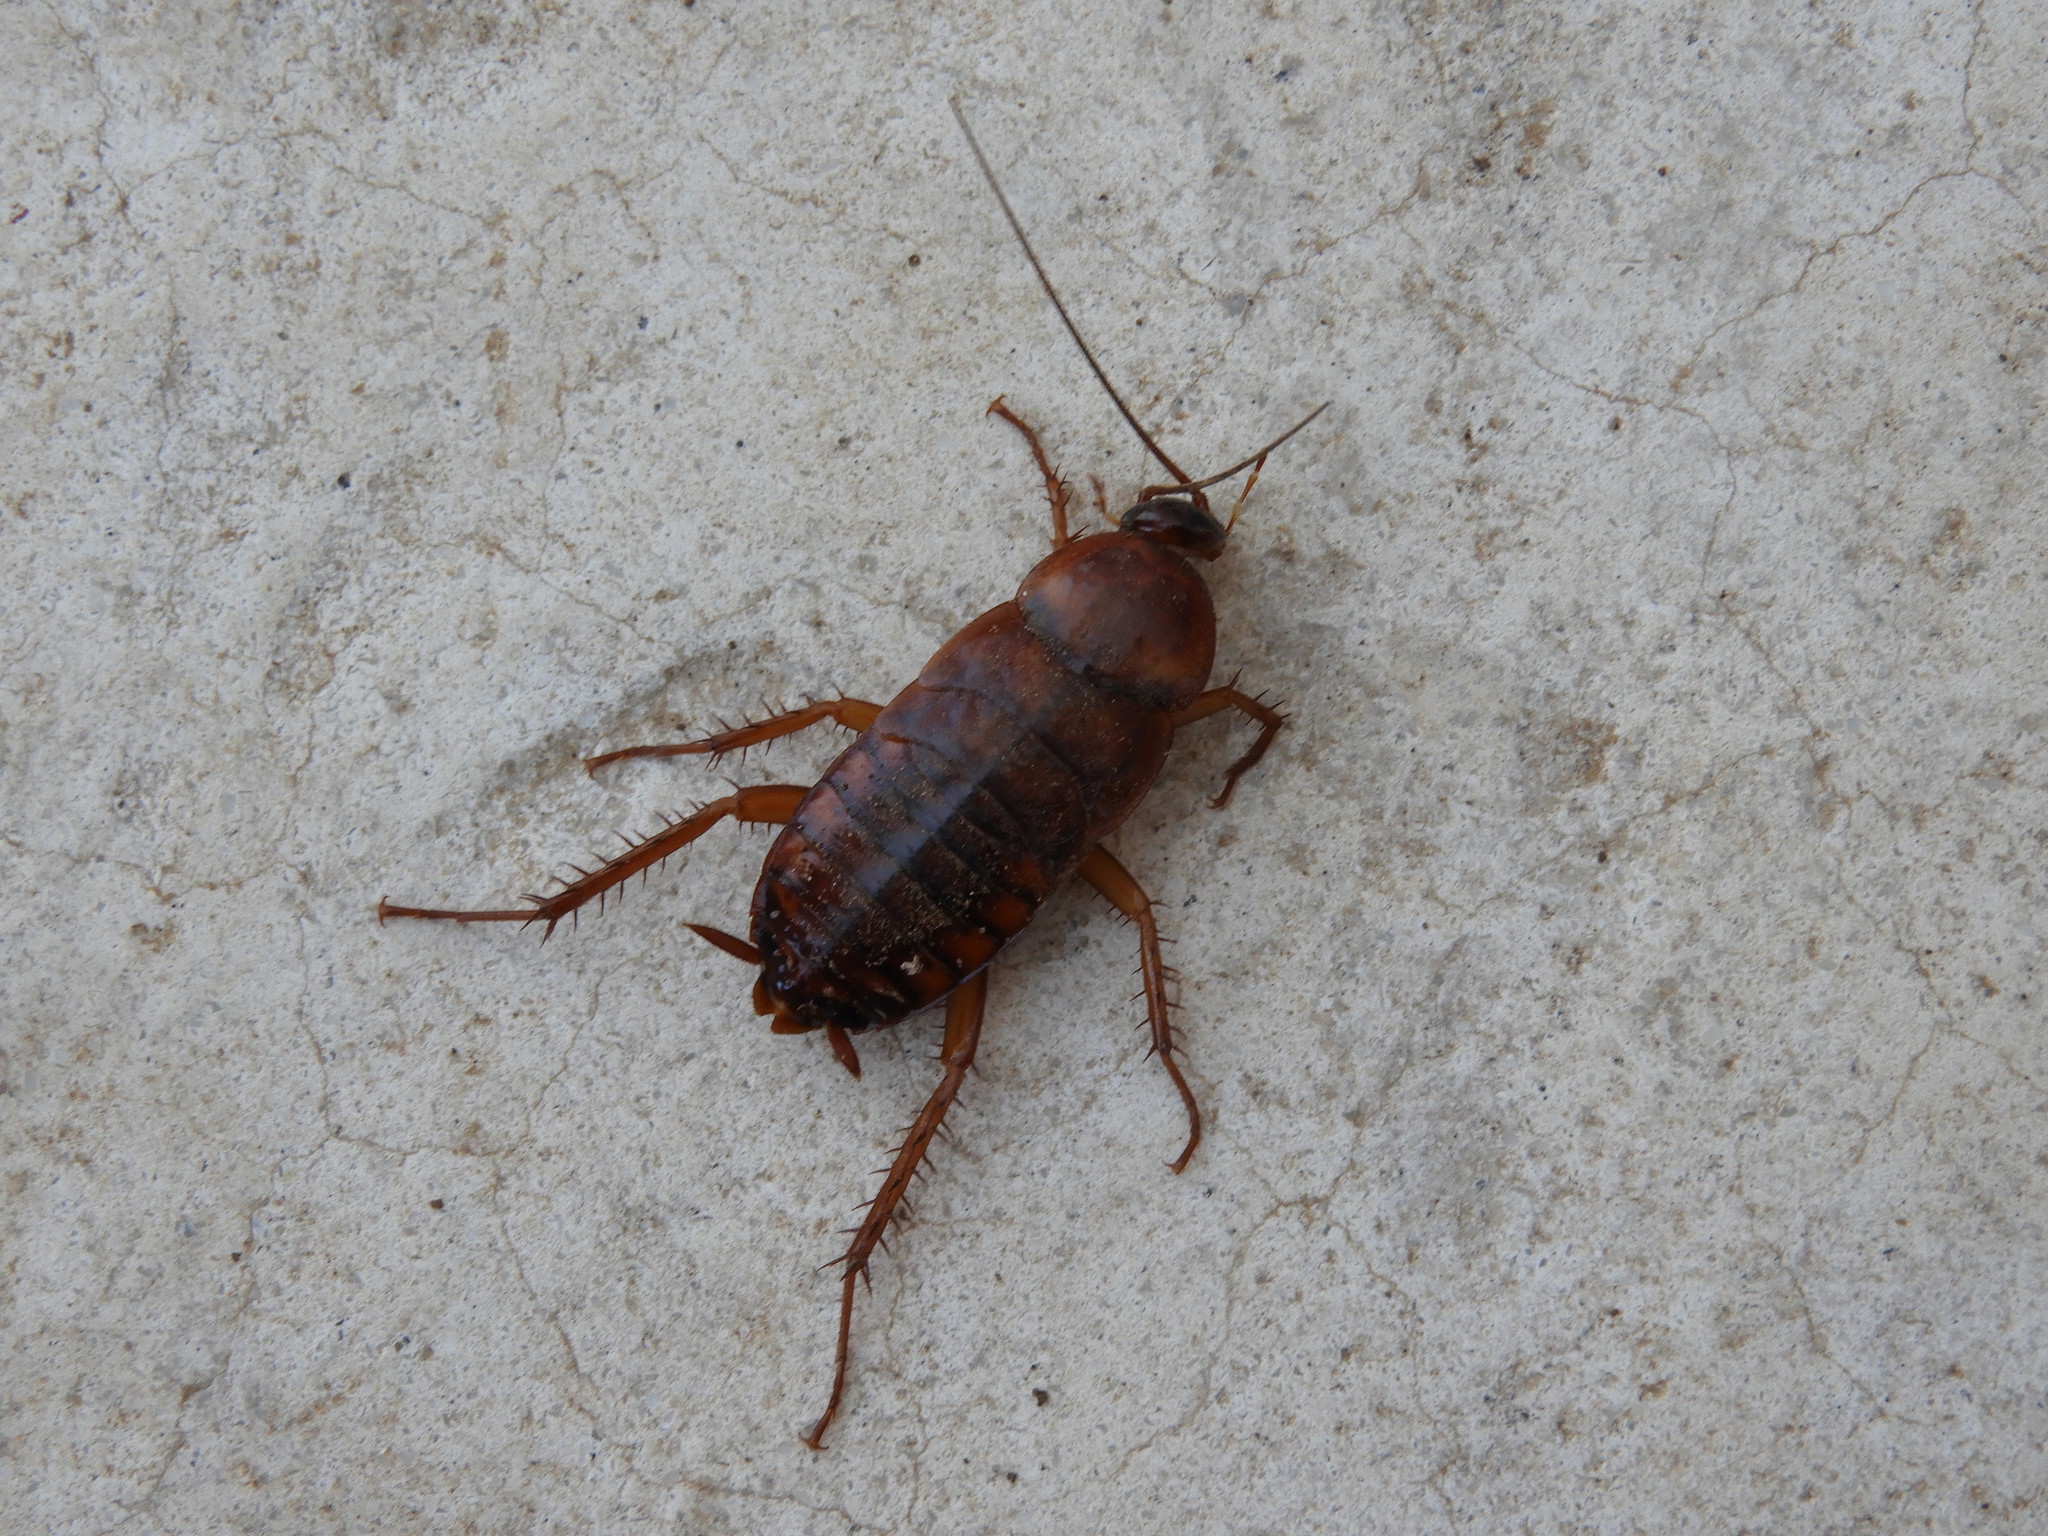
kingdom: Animalia
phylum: Arthropoda
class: Insecta
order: Blattodea
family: Blattidae
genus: Periplaneta
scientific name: Periplaneta americana
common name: American cockroach
